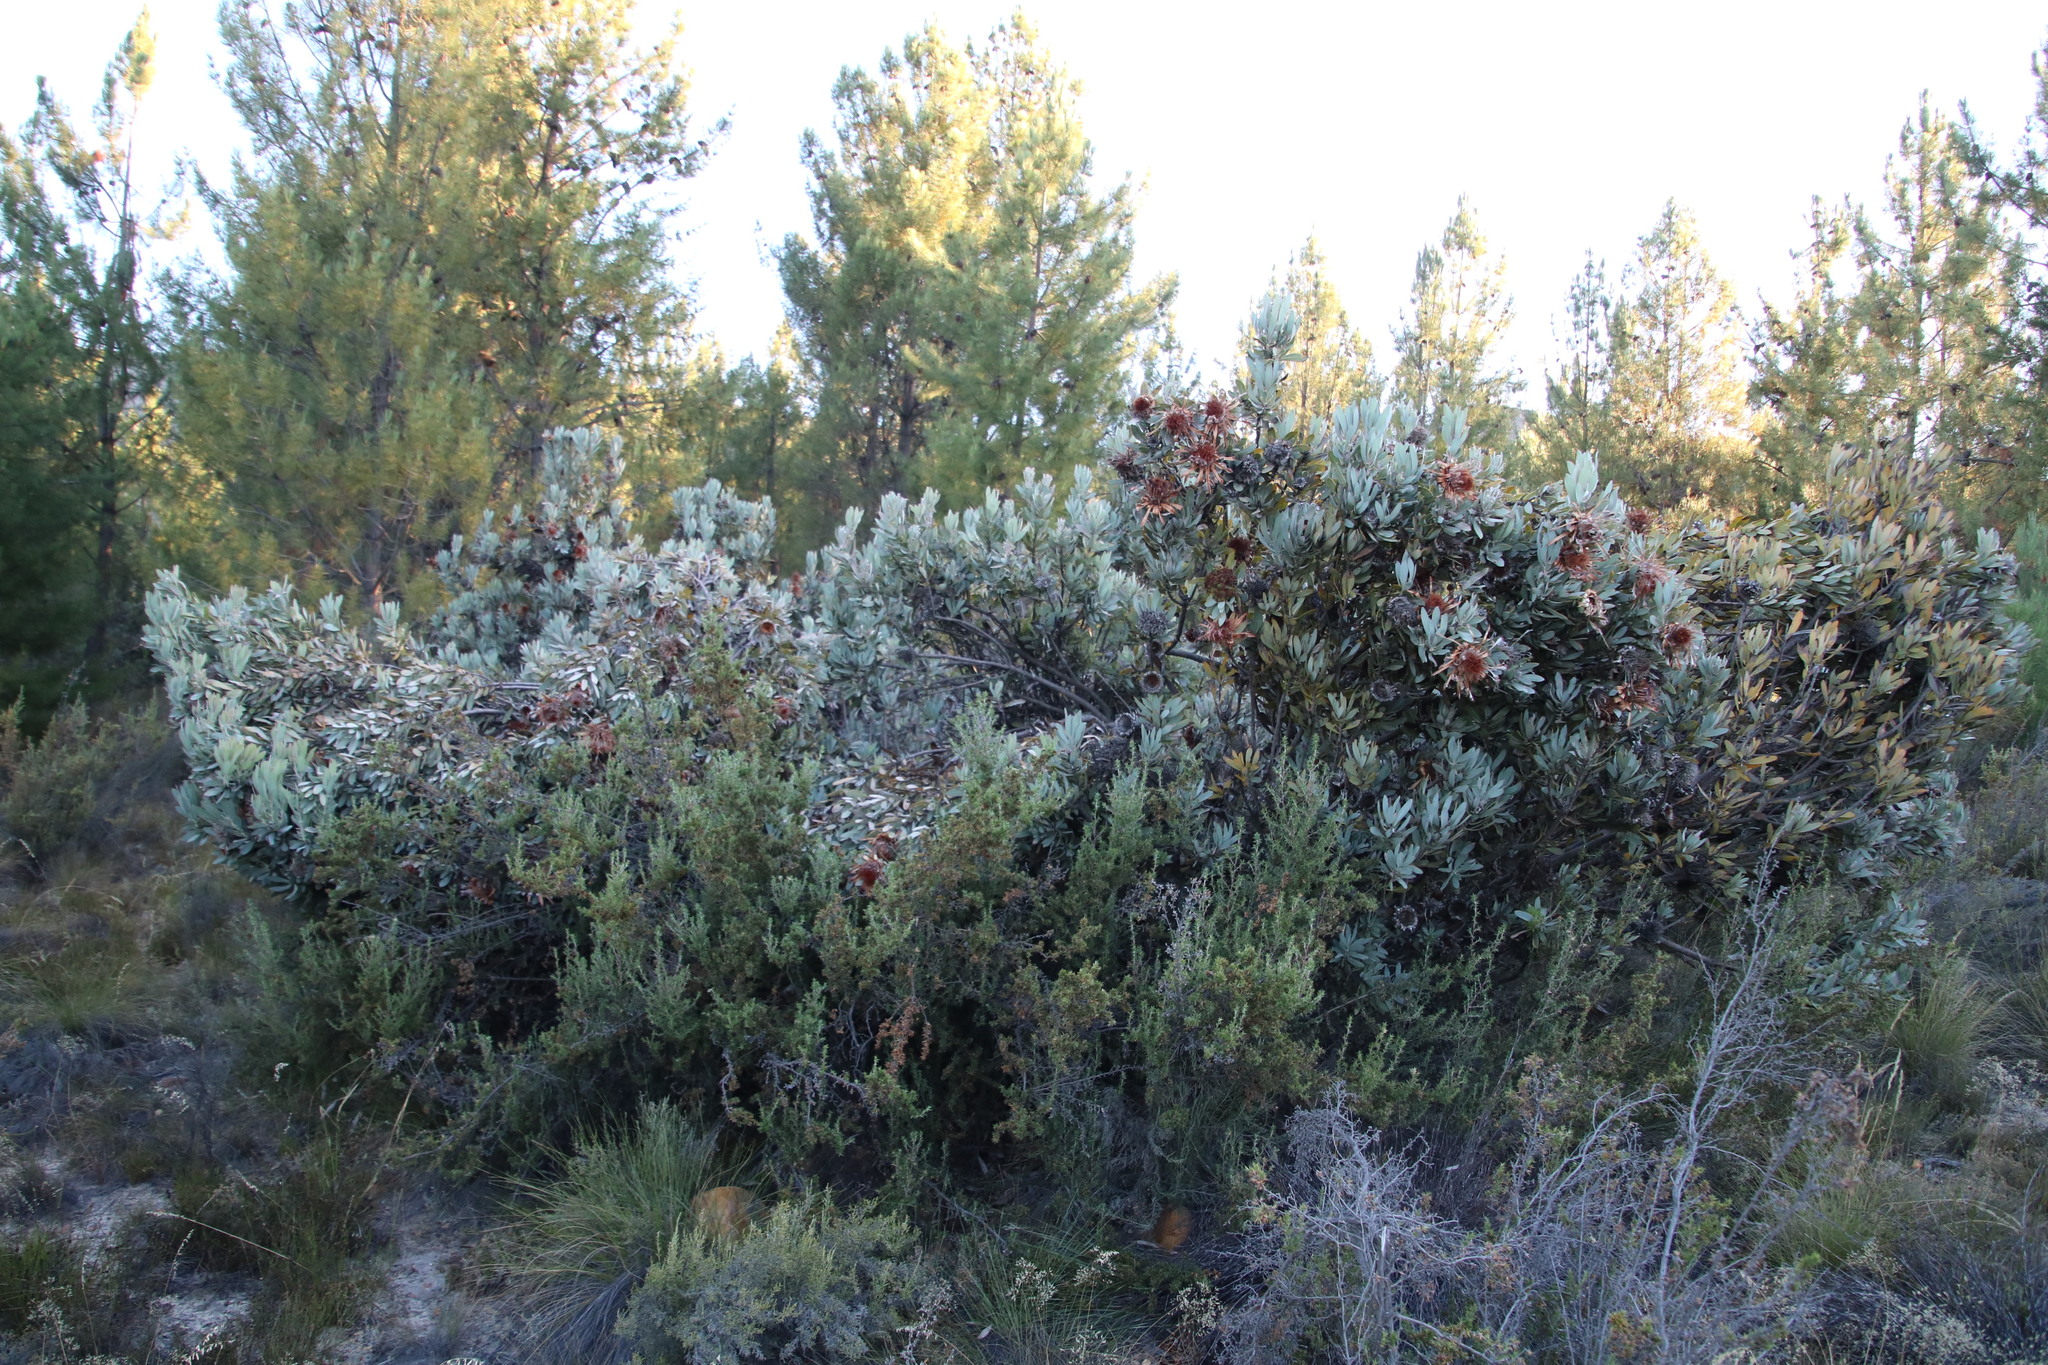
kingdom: Plantae
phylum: Tracheophyta
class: Magnoliopsida
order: Proteales
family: Proteaceae
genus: Protea
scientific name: Protea laurifolia
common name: Grey-leaf sugarbsh
